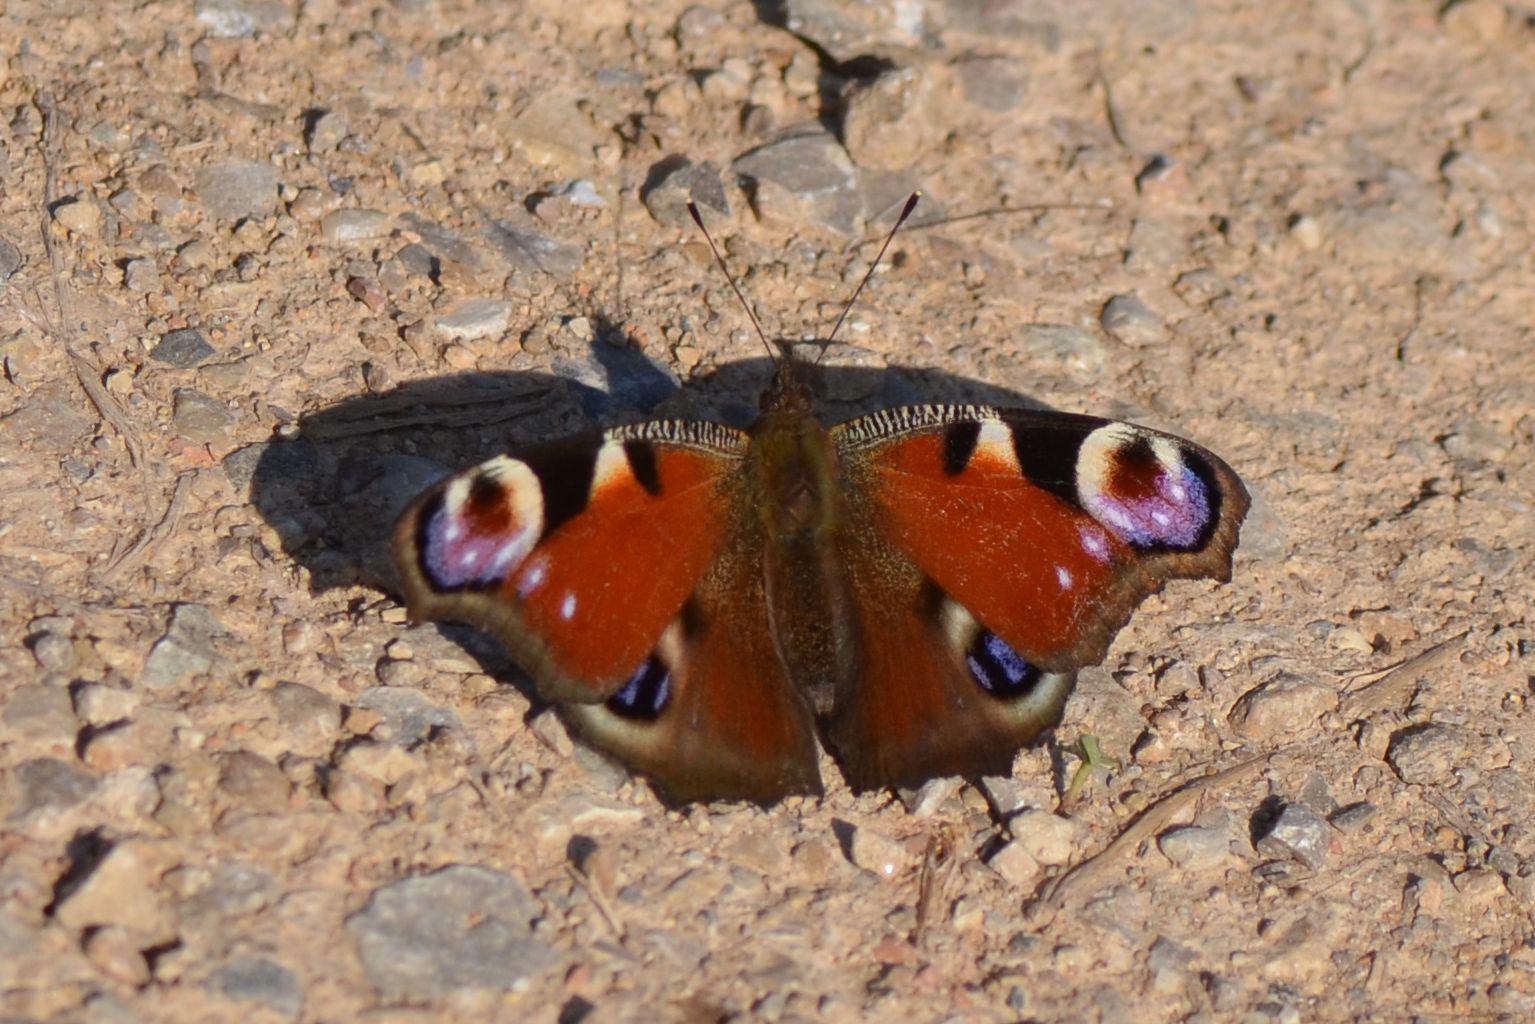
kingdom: Animalia
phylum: Arthropoda
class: Insecta
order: Lepidoptera
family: Nymphalidae
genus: Aglais
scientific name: Aglais io
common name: Peacock
